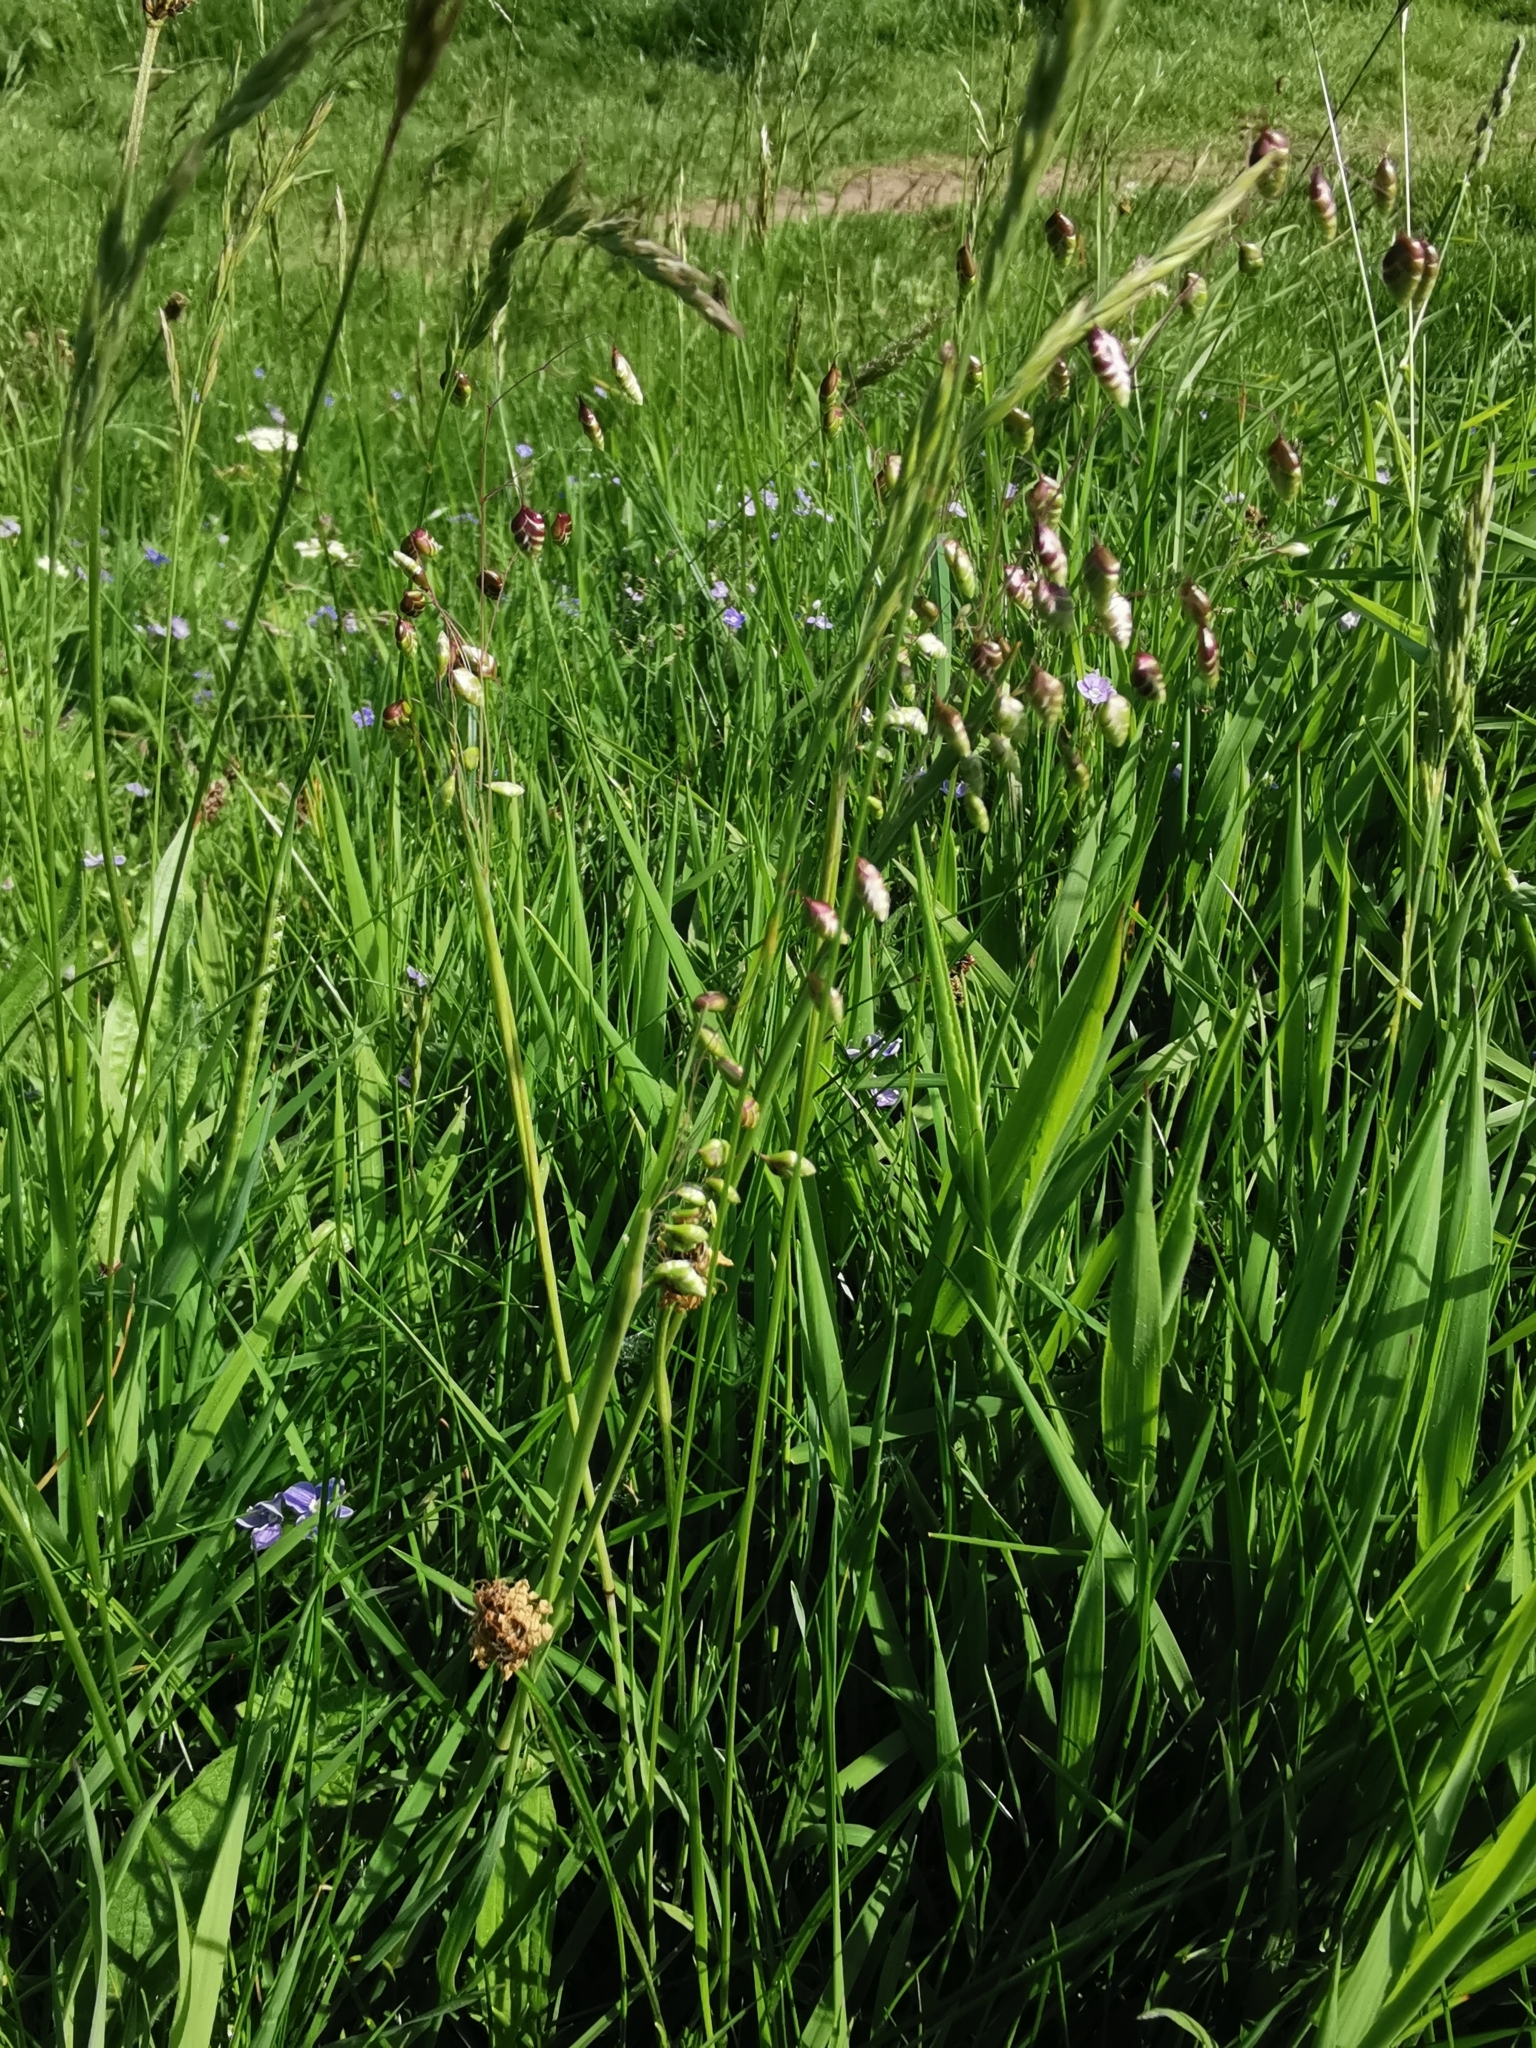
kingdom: Plantae
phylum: Tracheophyta
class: Liliopsida
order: Poales
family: Poaceae
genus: Briza
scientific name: Briza media
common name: Quaking grass
